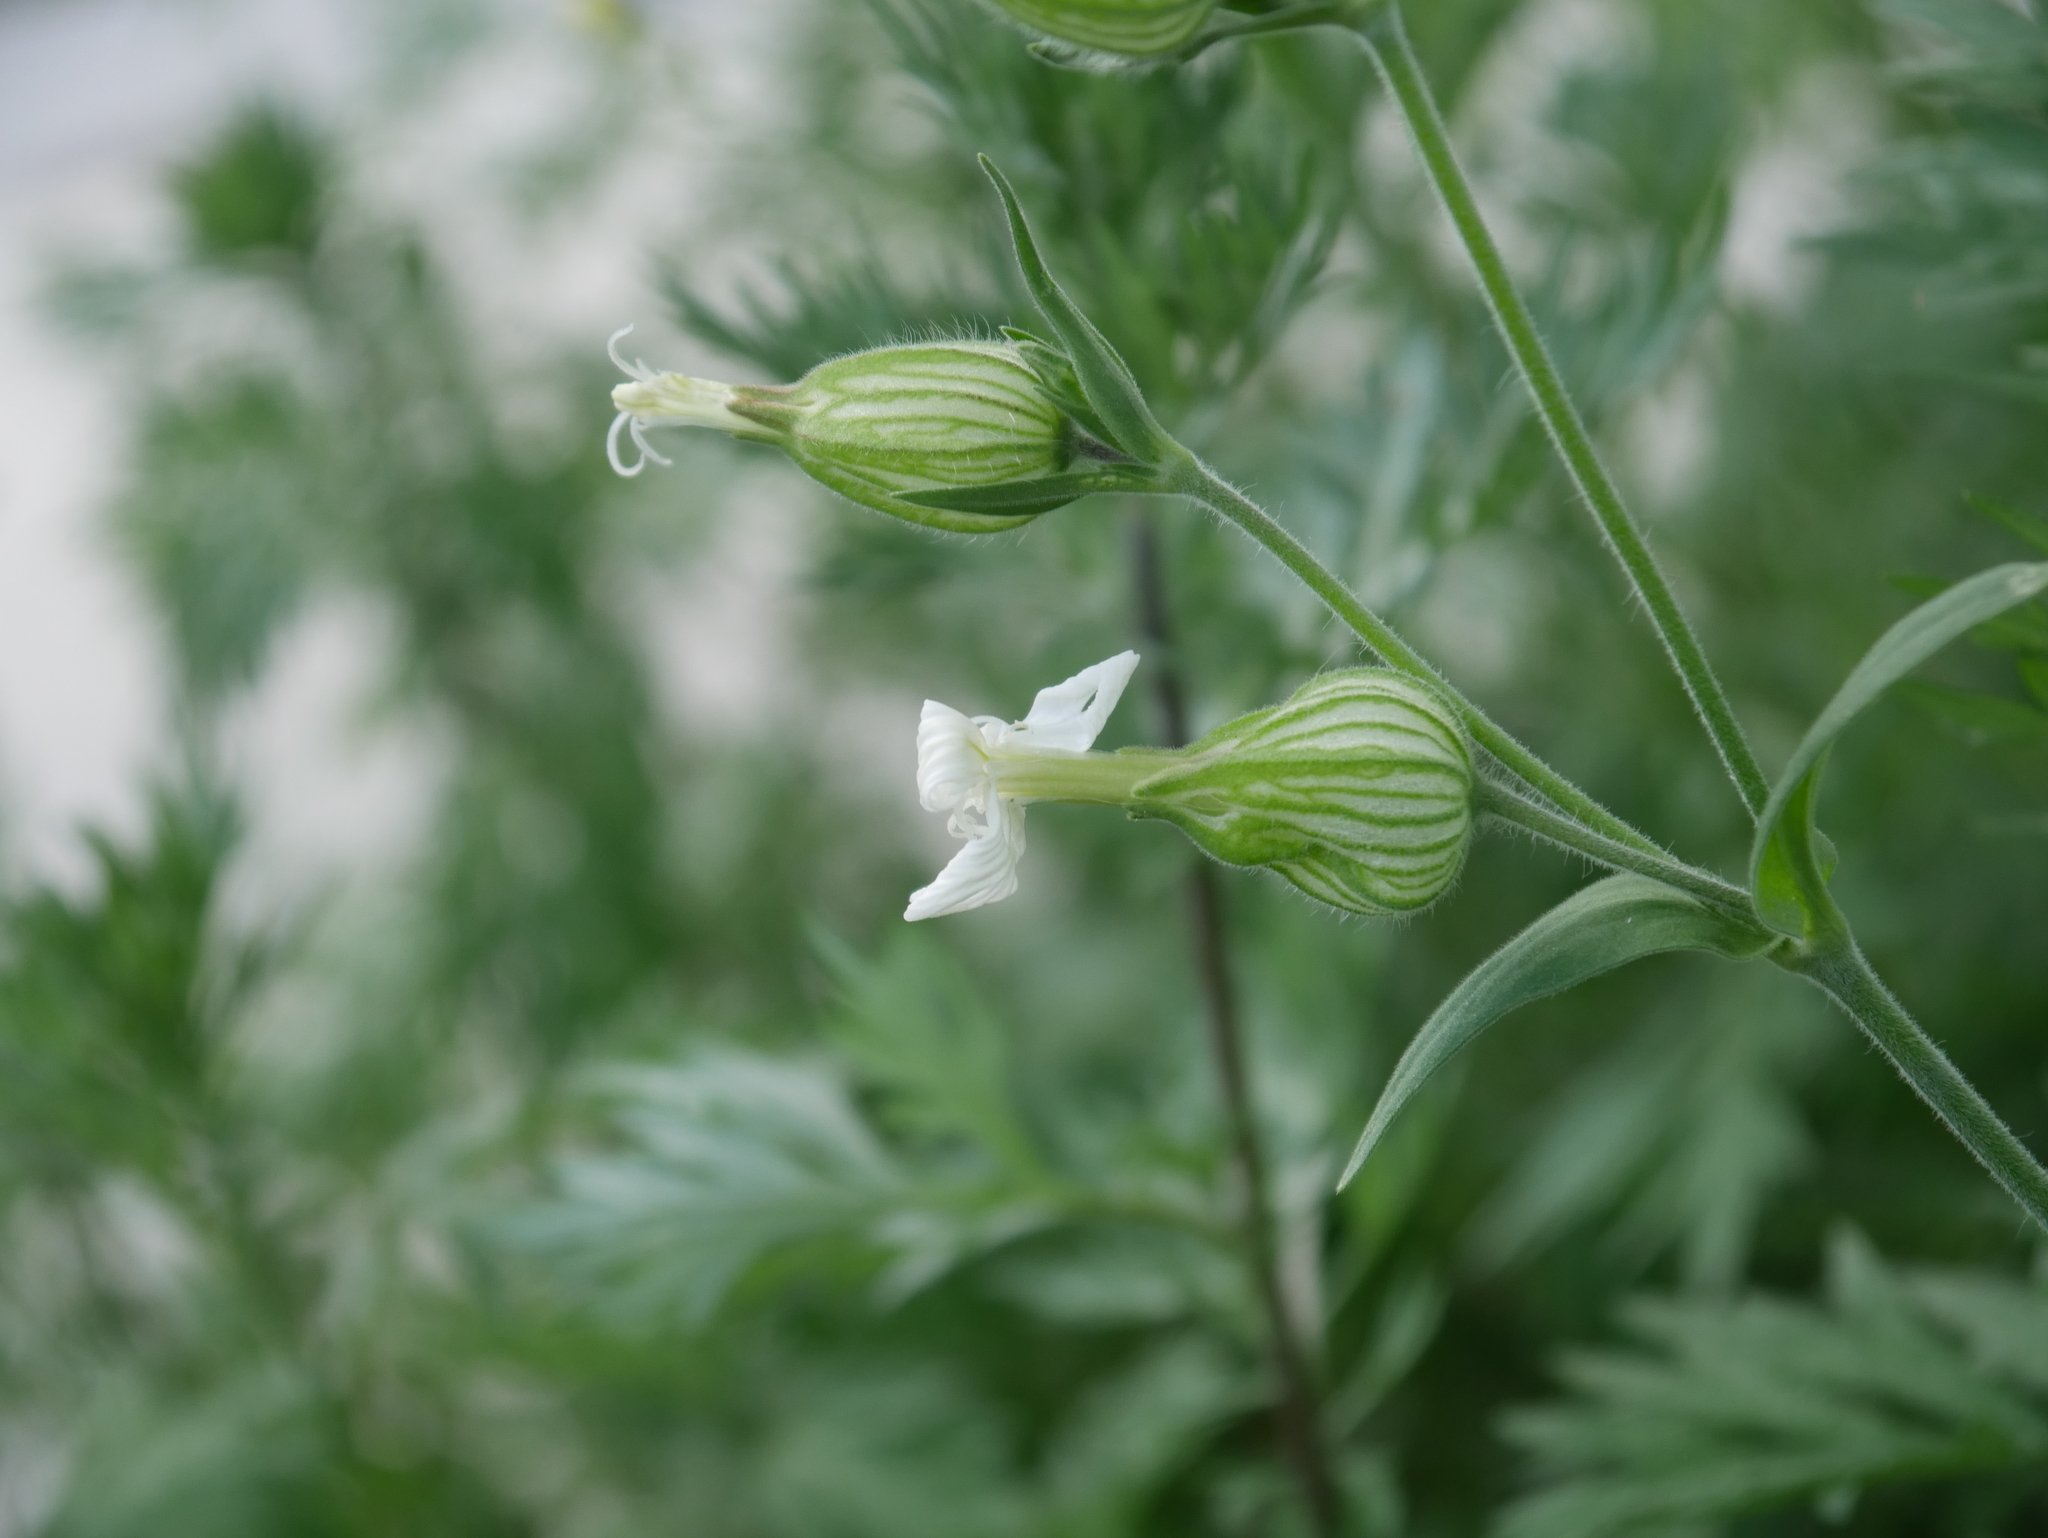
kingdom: Plantae
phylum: Tracheophyta
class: Magnoliopsida
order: Caryophyllales
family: Caryophyllaceae
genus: Silene
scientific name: Silene latifolia
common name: White campion
